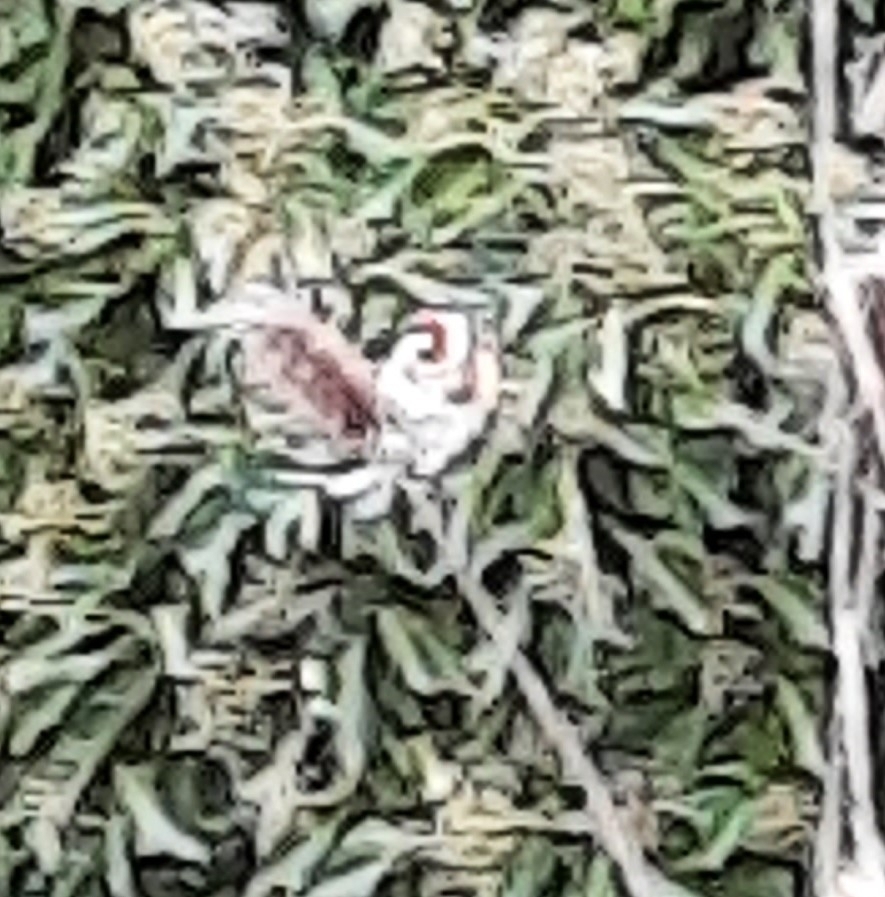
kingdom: Animalia
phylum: Chordata
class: Aves
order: Passeriformes
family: Fringillidae
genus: Carduelis
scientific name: Carduelis carduelis
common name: European goldfinch
